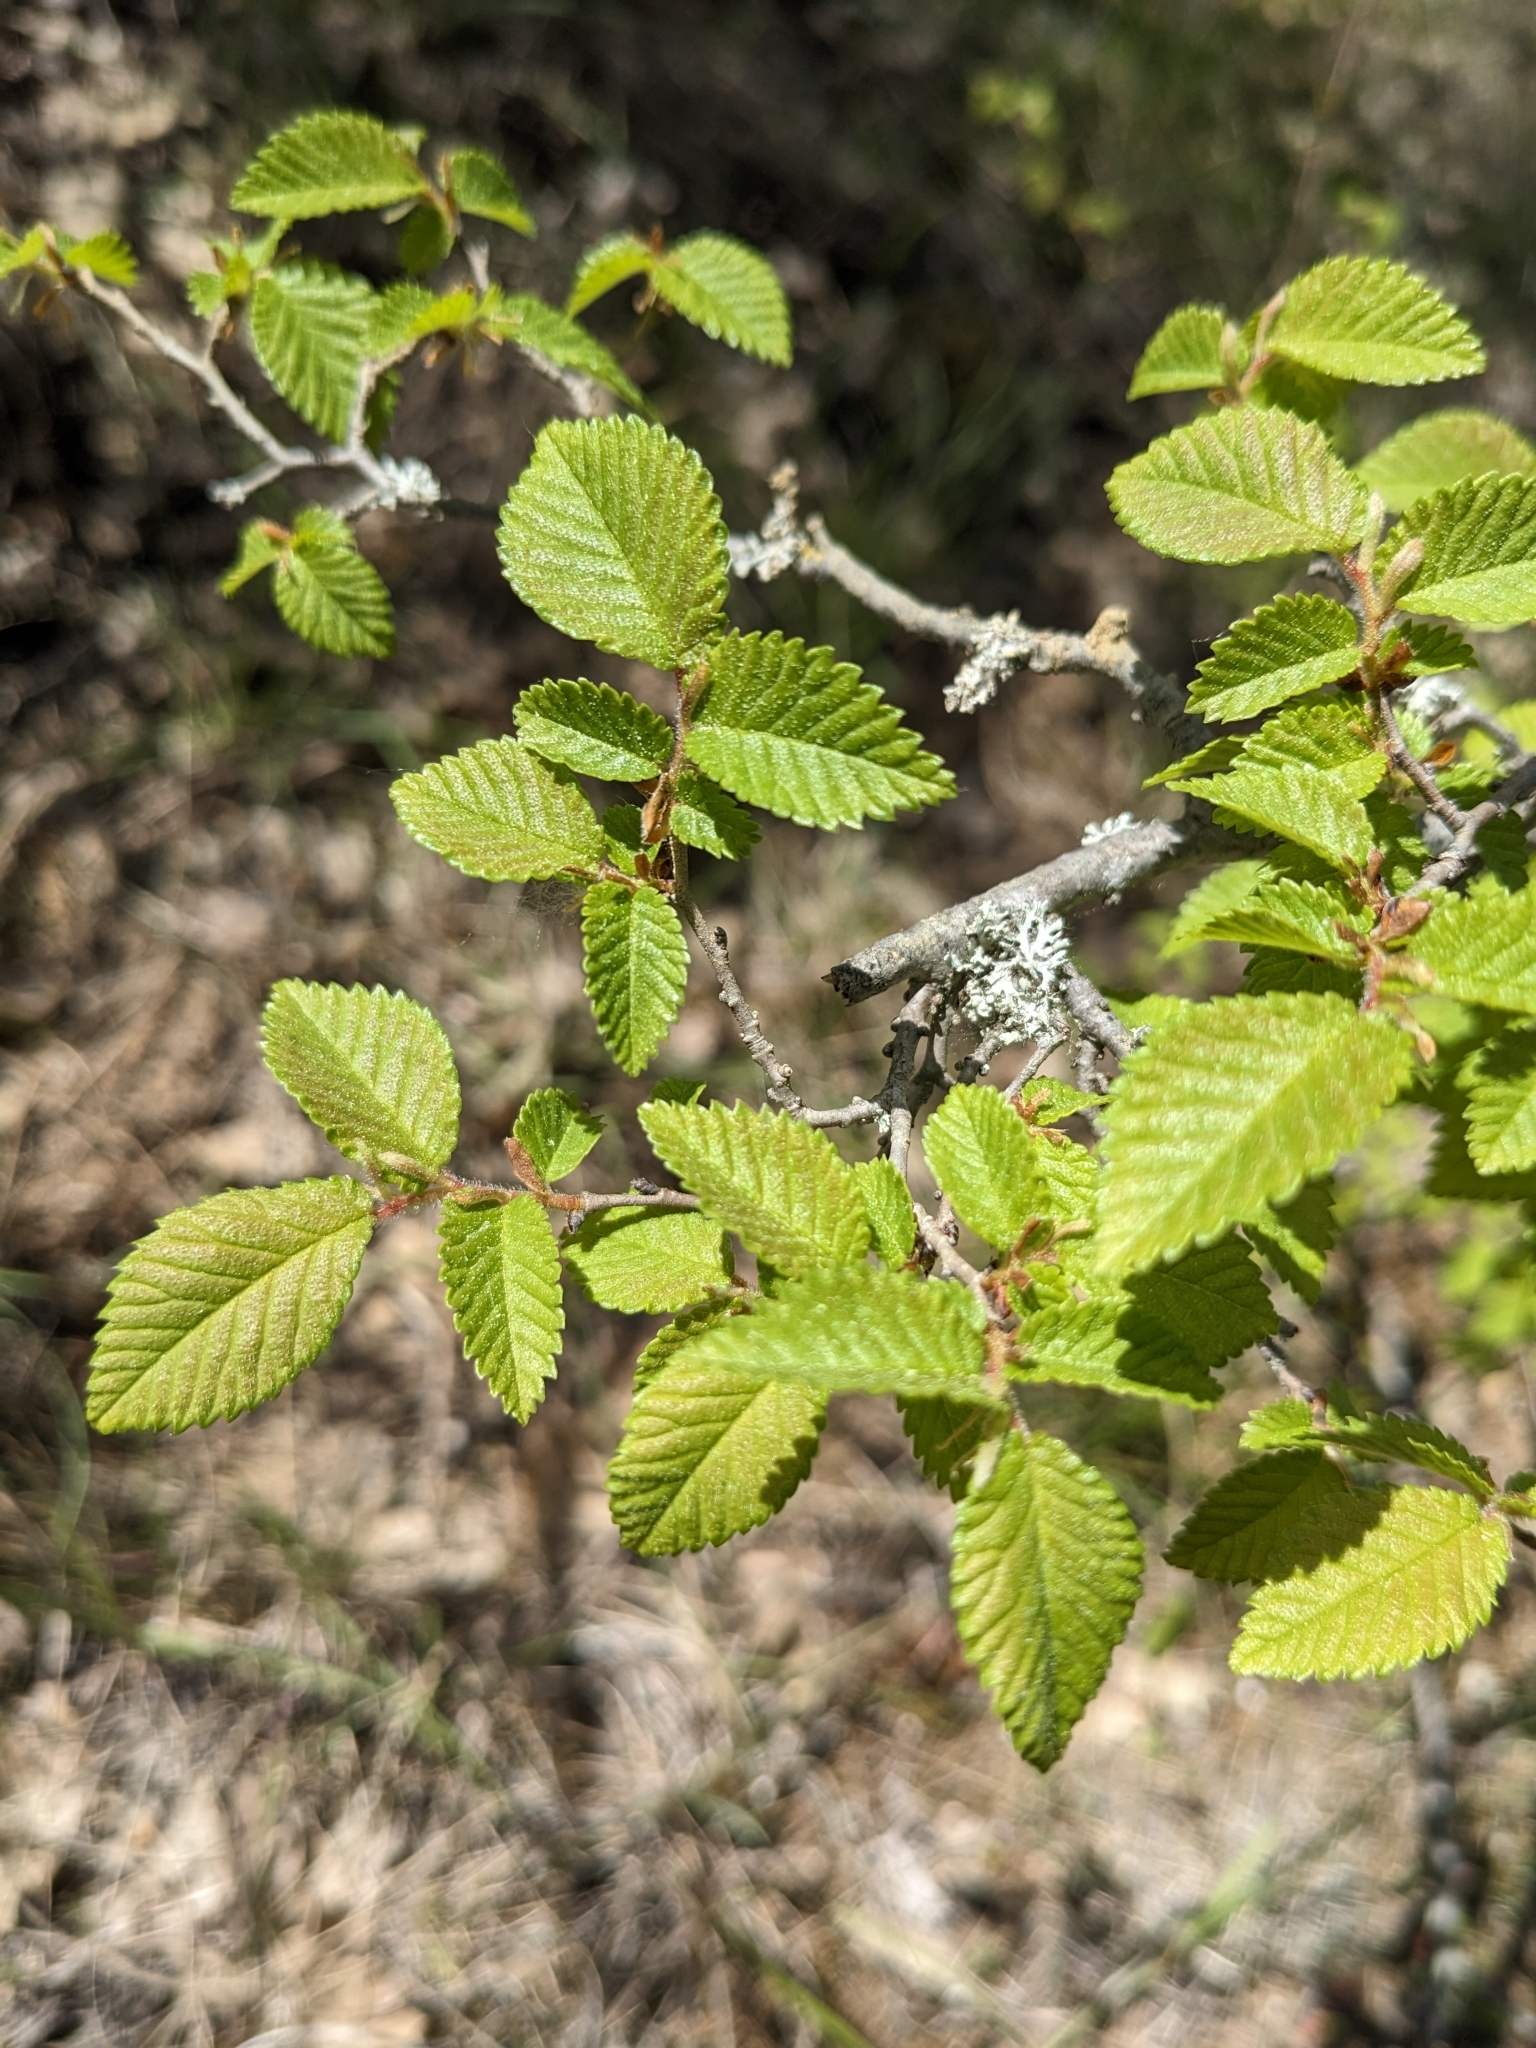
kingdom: Plantae
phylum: Tracheophyta
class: Magnoliopsida
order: Rosales
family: Ulmaceae
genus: Ulmus
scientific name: Ulmus minor
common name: Small-leaved elm
